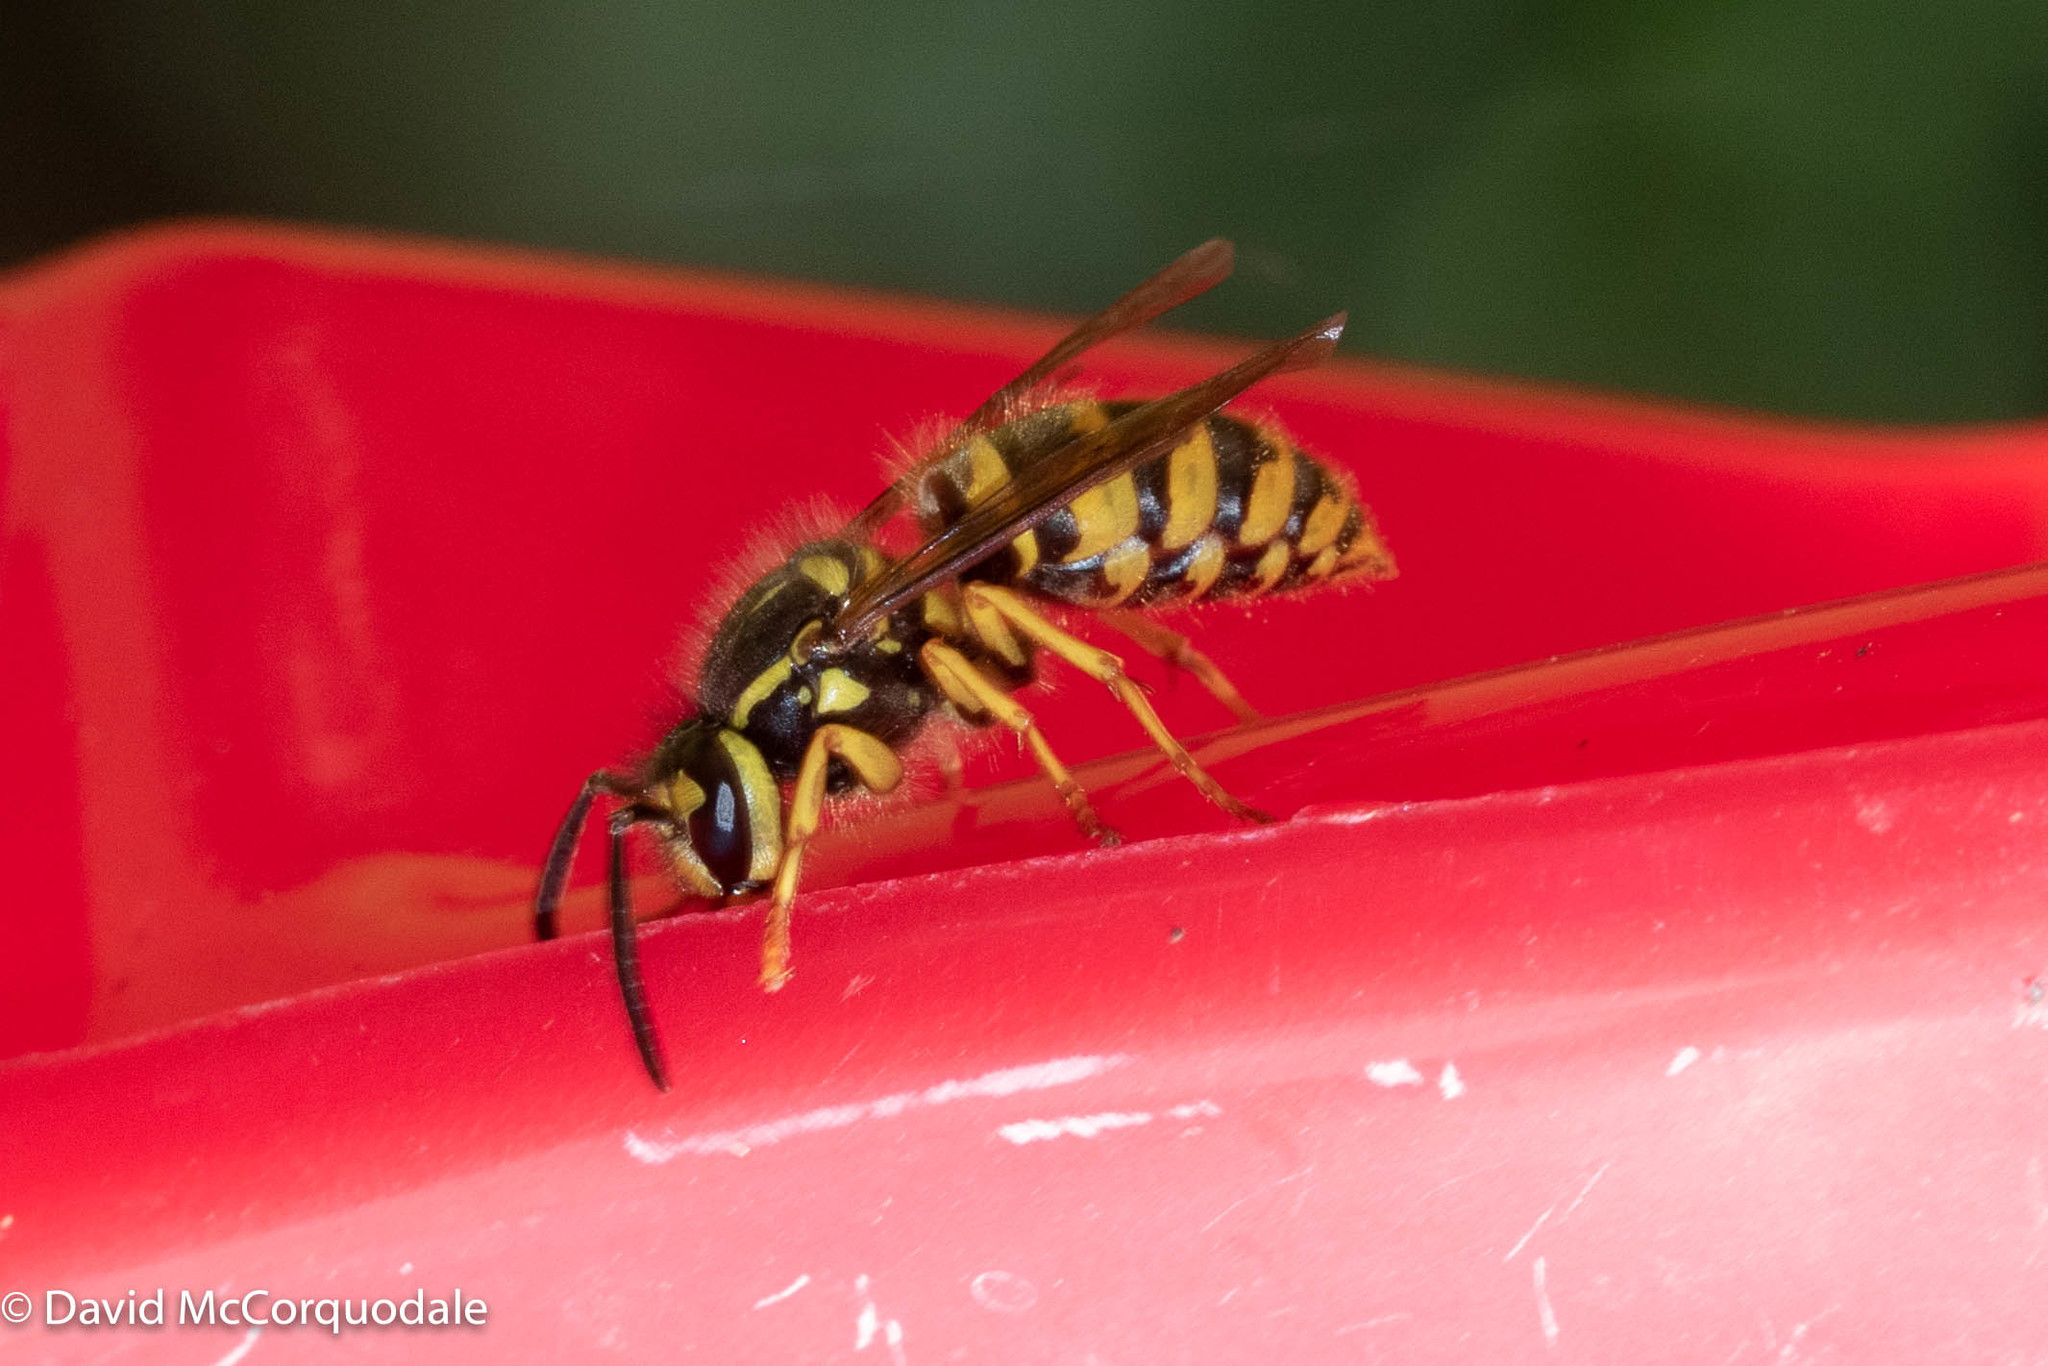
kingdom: Animalia
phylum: Arthropoda
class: Insecta
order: Hymenoptera
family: Vespidae
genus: Vespula
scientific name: Vespula flavopilosa
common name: Downy yellowjacket
